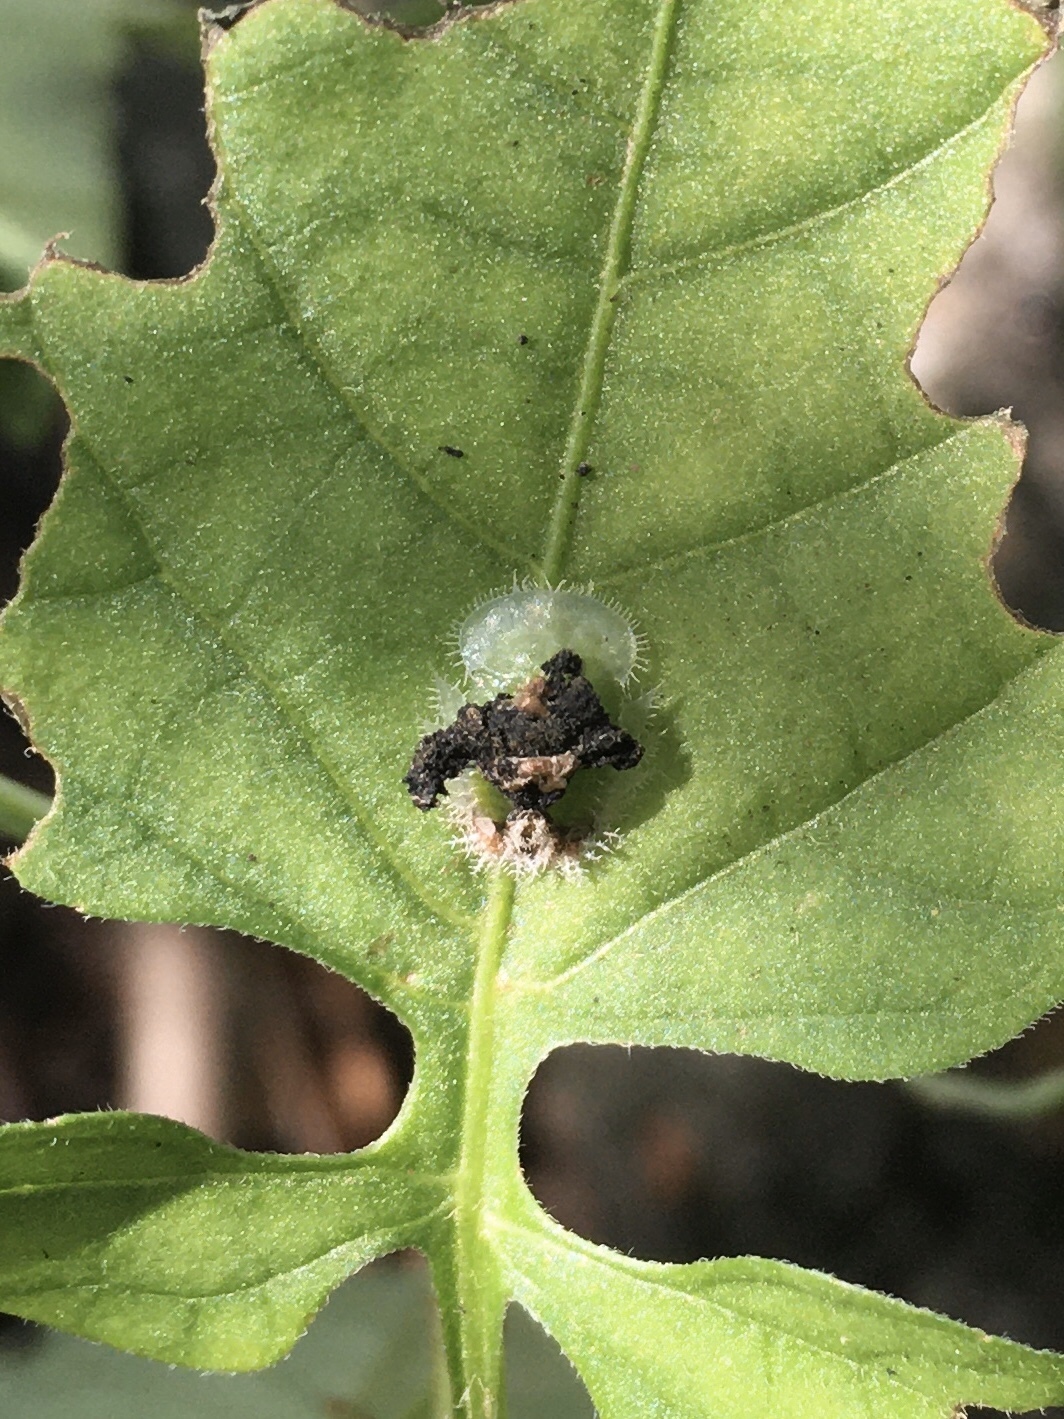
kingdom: Animalia
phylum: Arthropoda
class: Insecta
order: Coleoptera
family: Chrysomelidae
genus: Helocassis
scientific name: Helocassis clavata
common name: Clavate tortoise beetle
